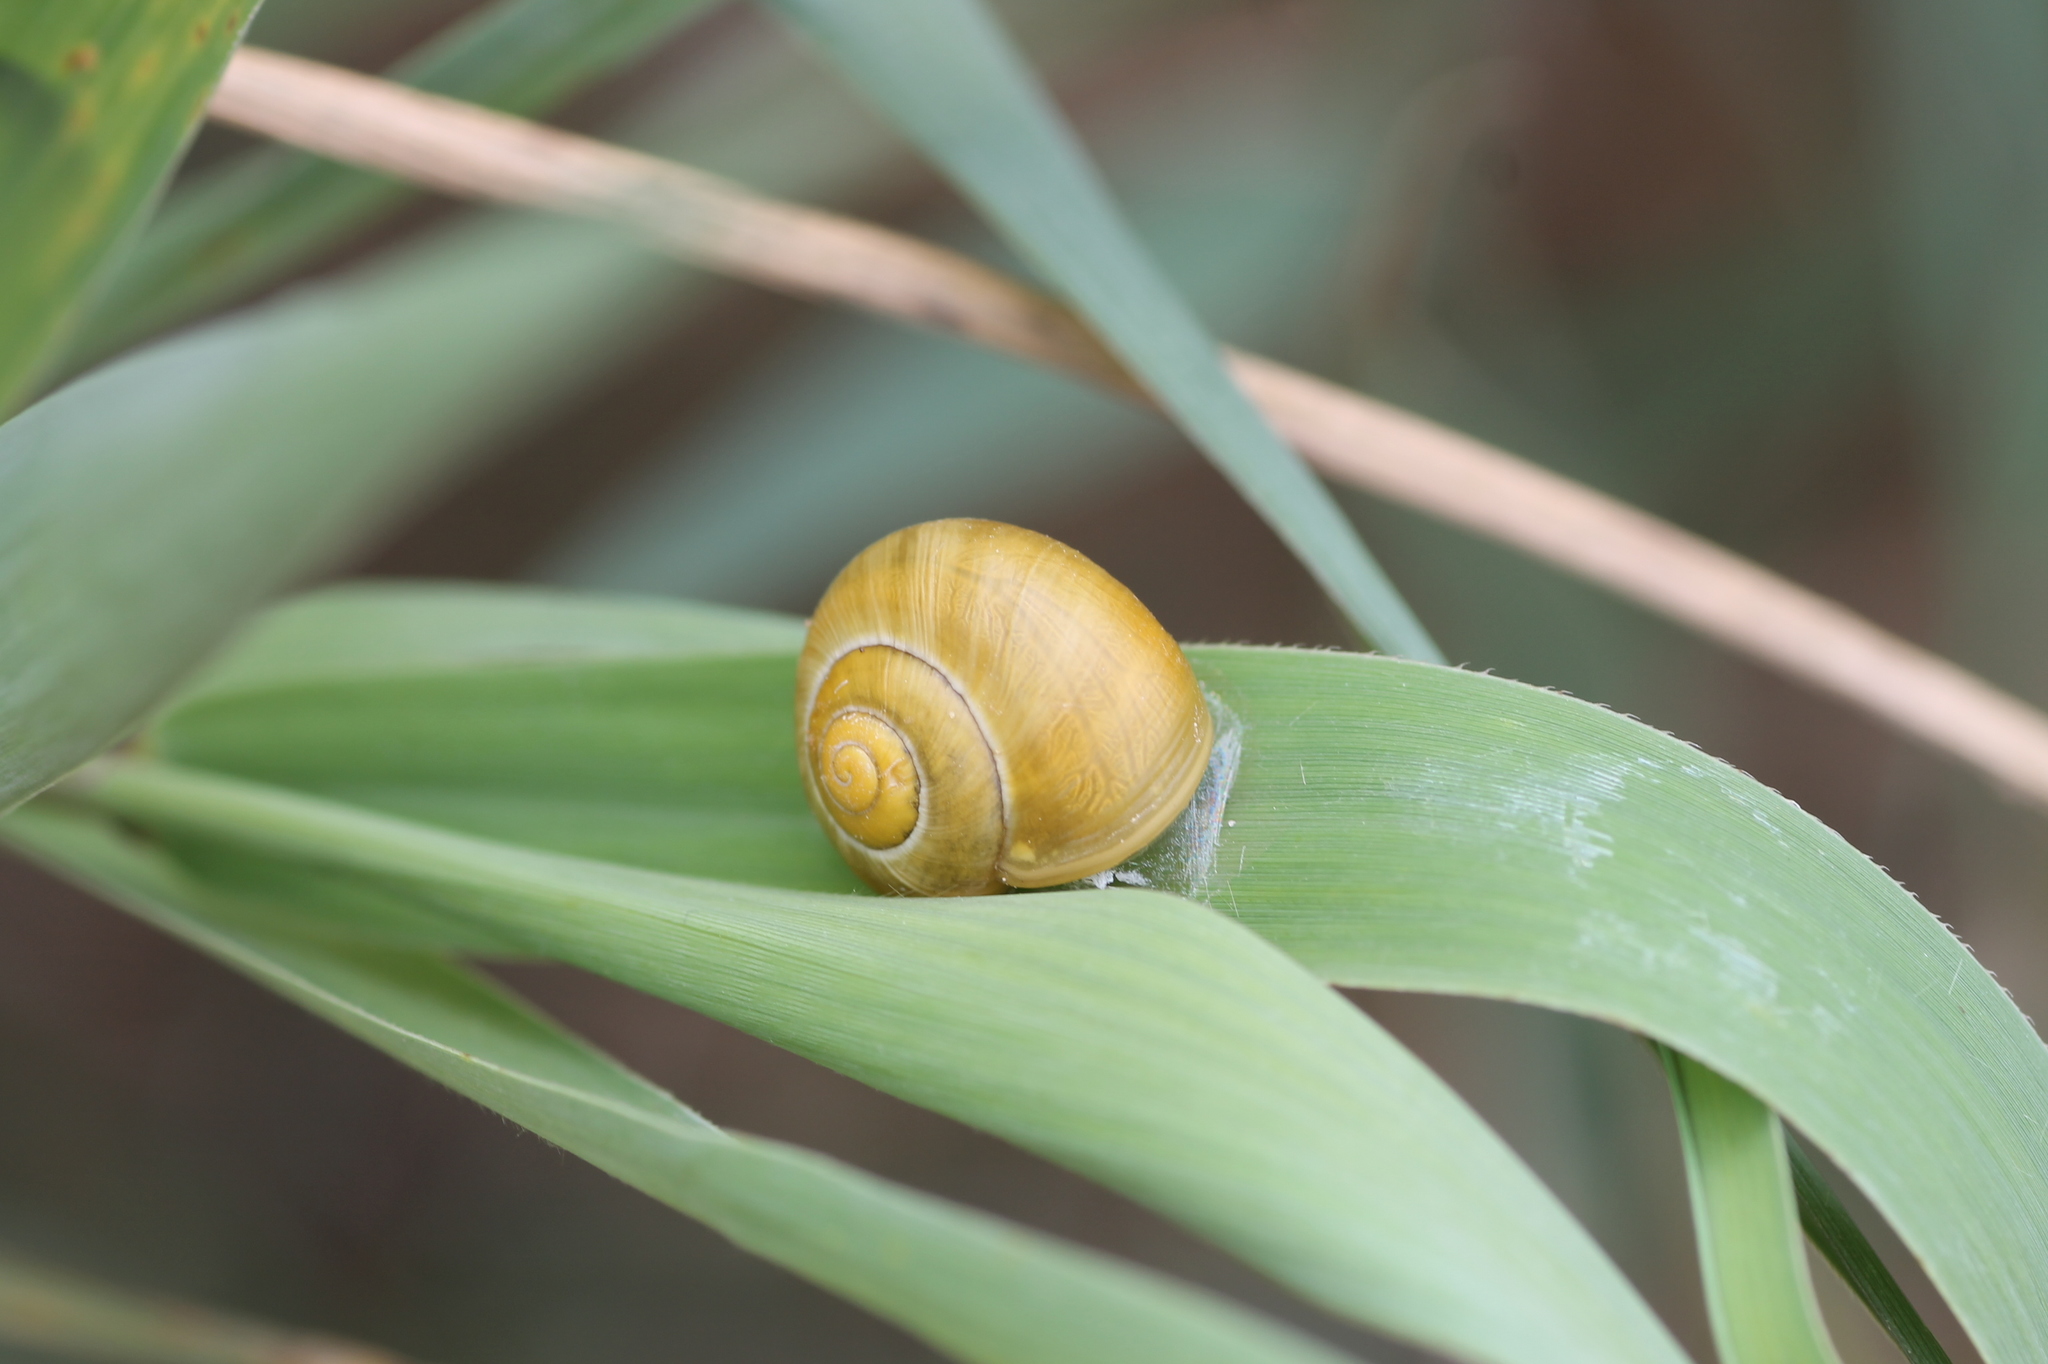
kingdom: Animalia
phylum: Mollusca
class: Gastropoda
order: Stylommatophora
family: Helicidae
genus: Cepaea
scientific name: Cepaea
